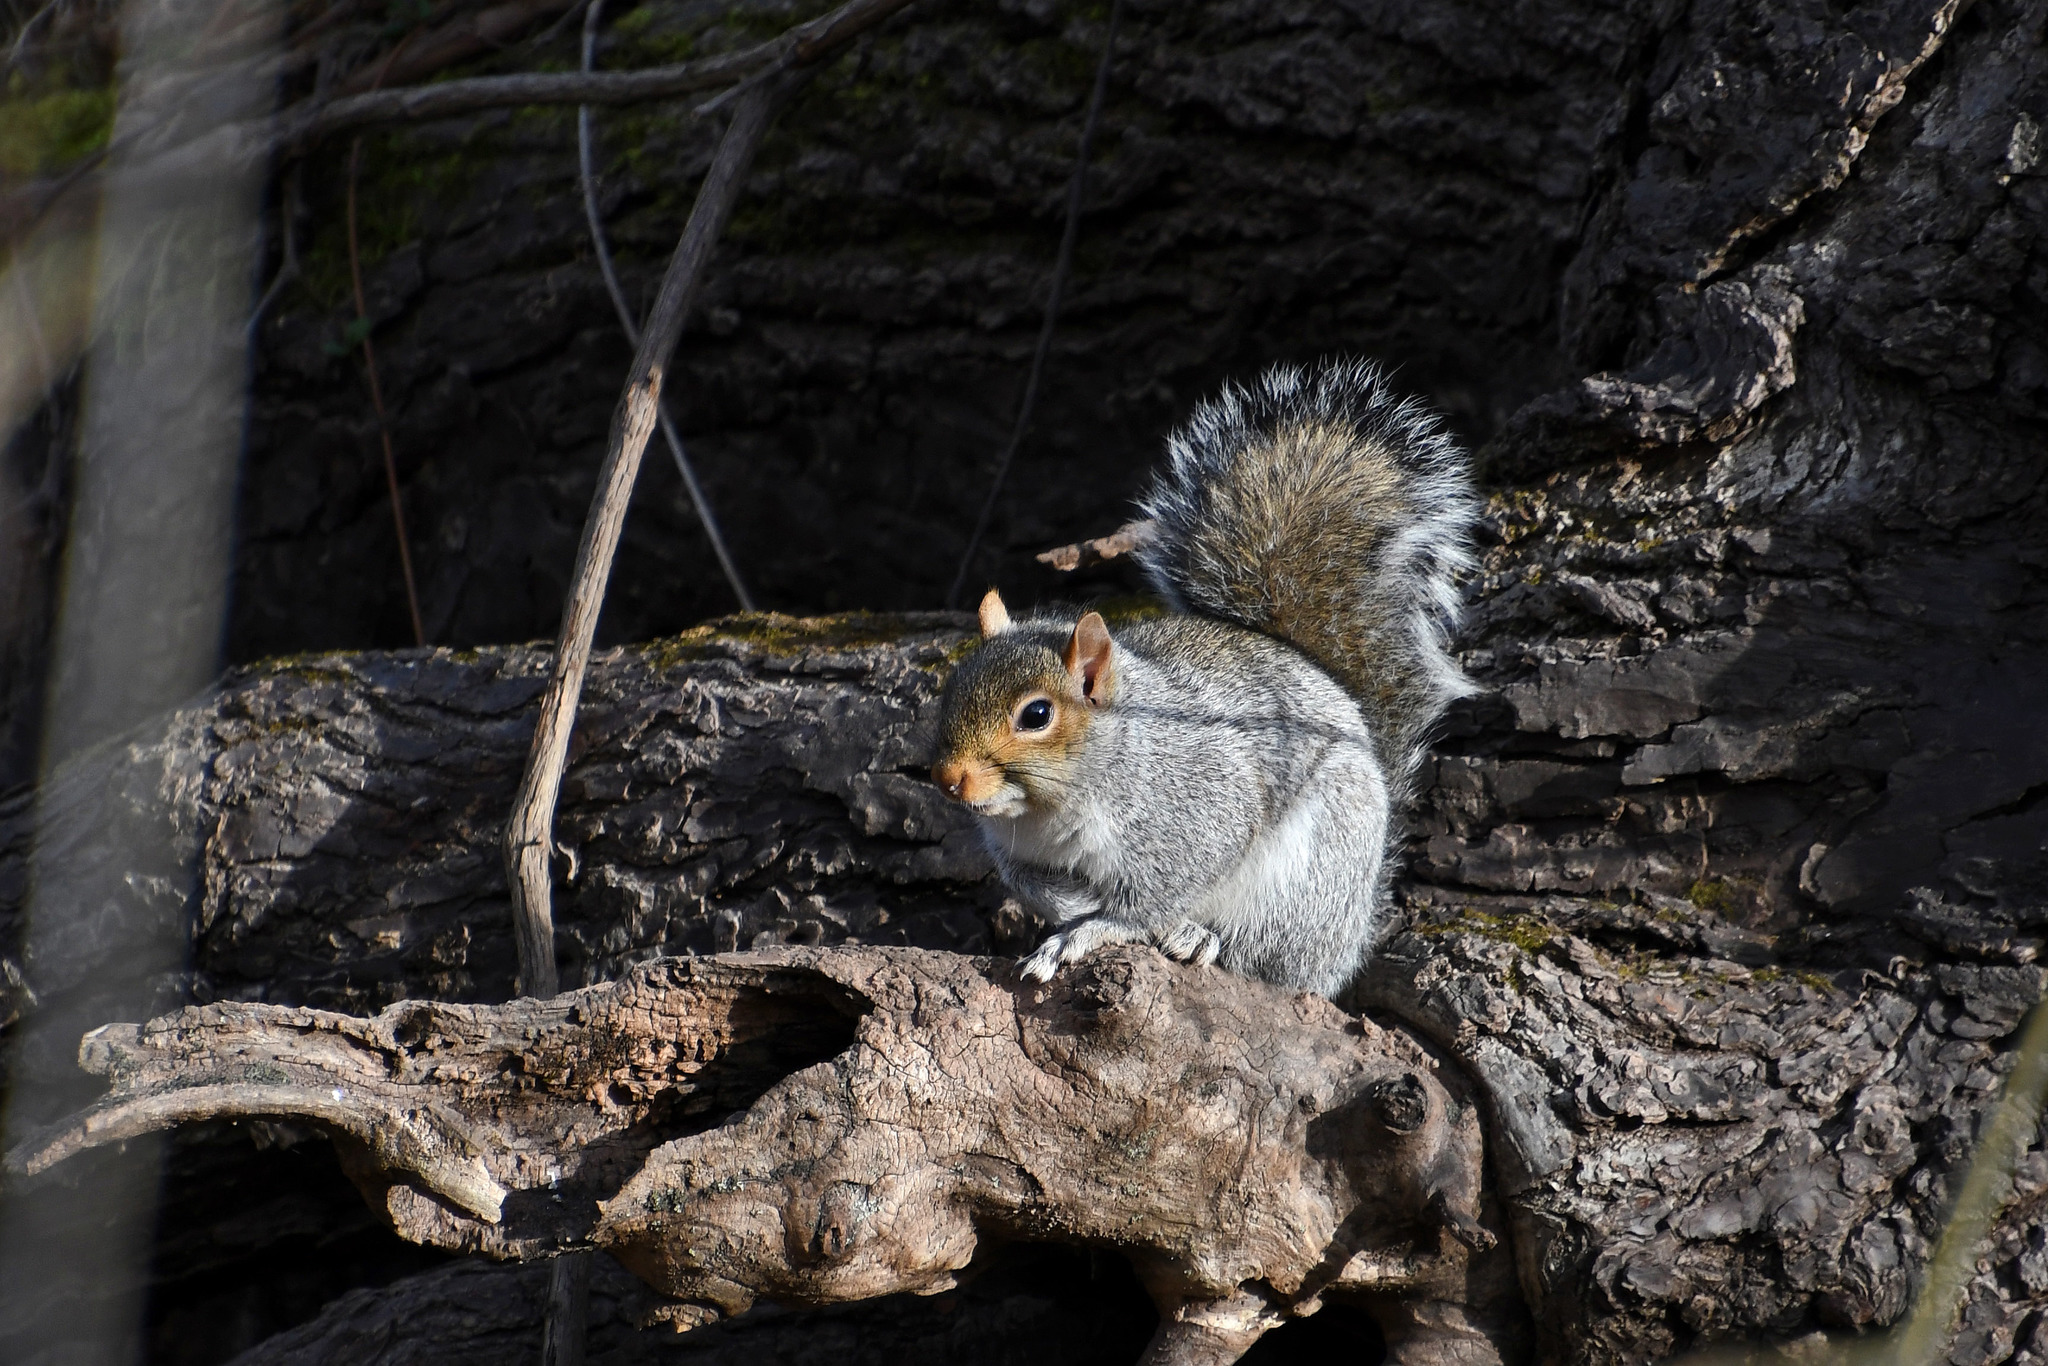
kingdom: Animalia
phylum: Chordata
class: Mammalia
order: Rodentia
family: Sciuridae
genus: Sciurus
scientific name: Sciurus carolinensis
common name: Eastern gray squirrel
